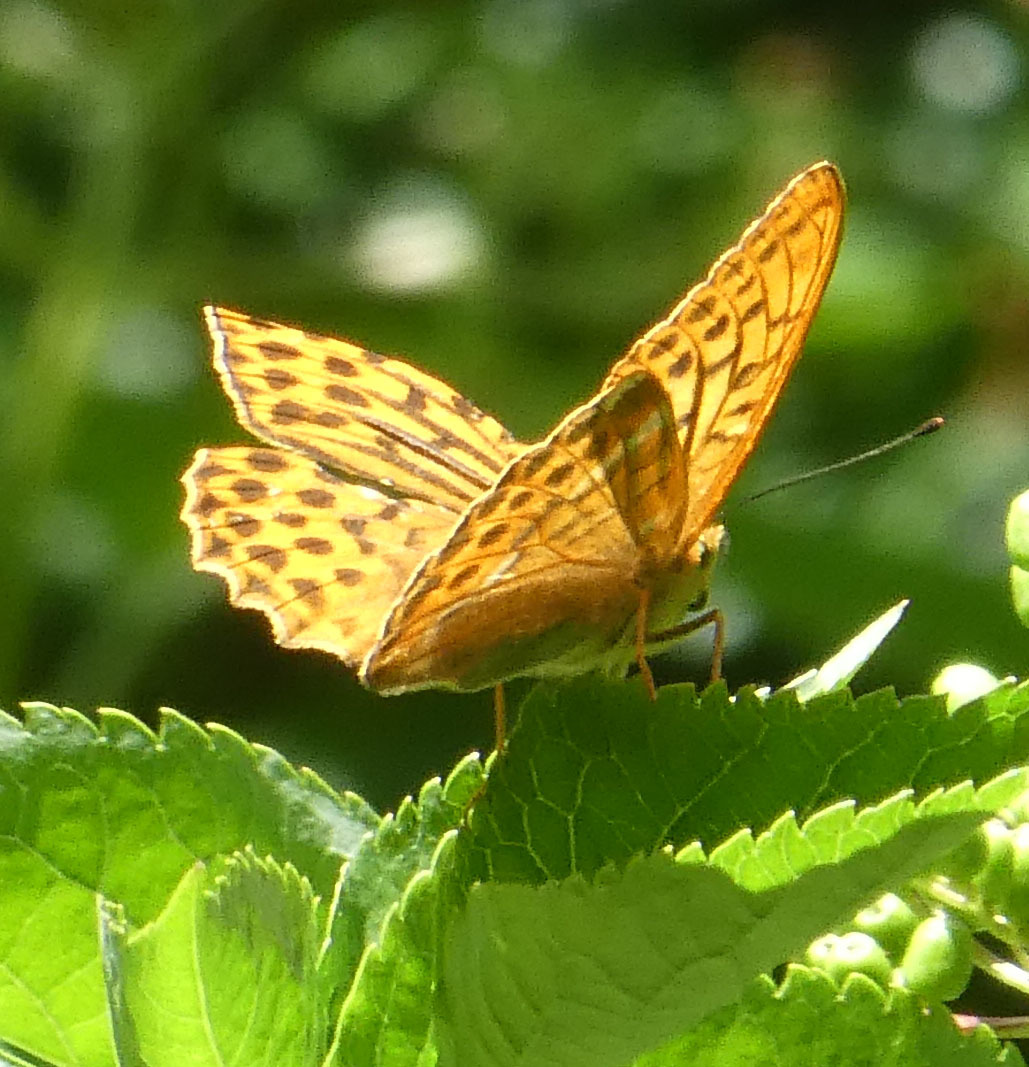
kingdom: Animalia
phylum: Arthropoda
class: Insecta
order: Lepidoptera
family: Nymphalidae
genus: Argynnis
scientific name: Argynnis paphia
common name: Silver-washed fritillary
